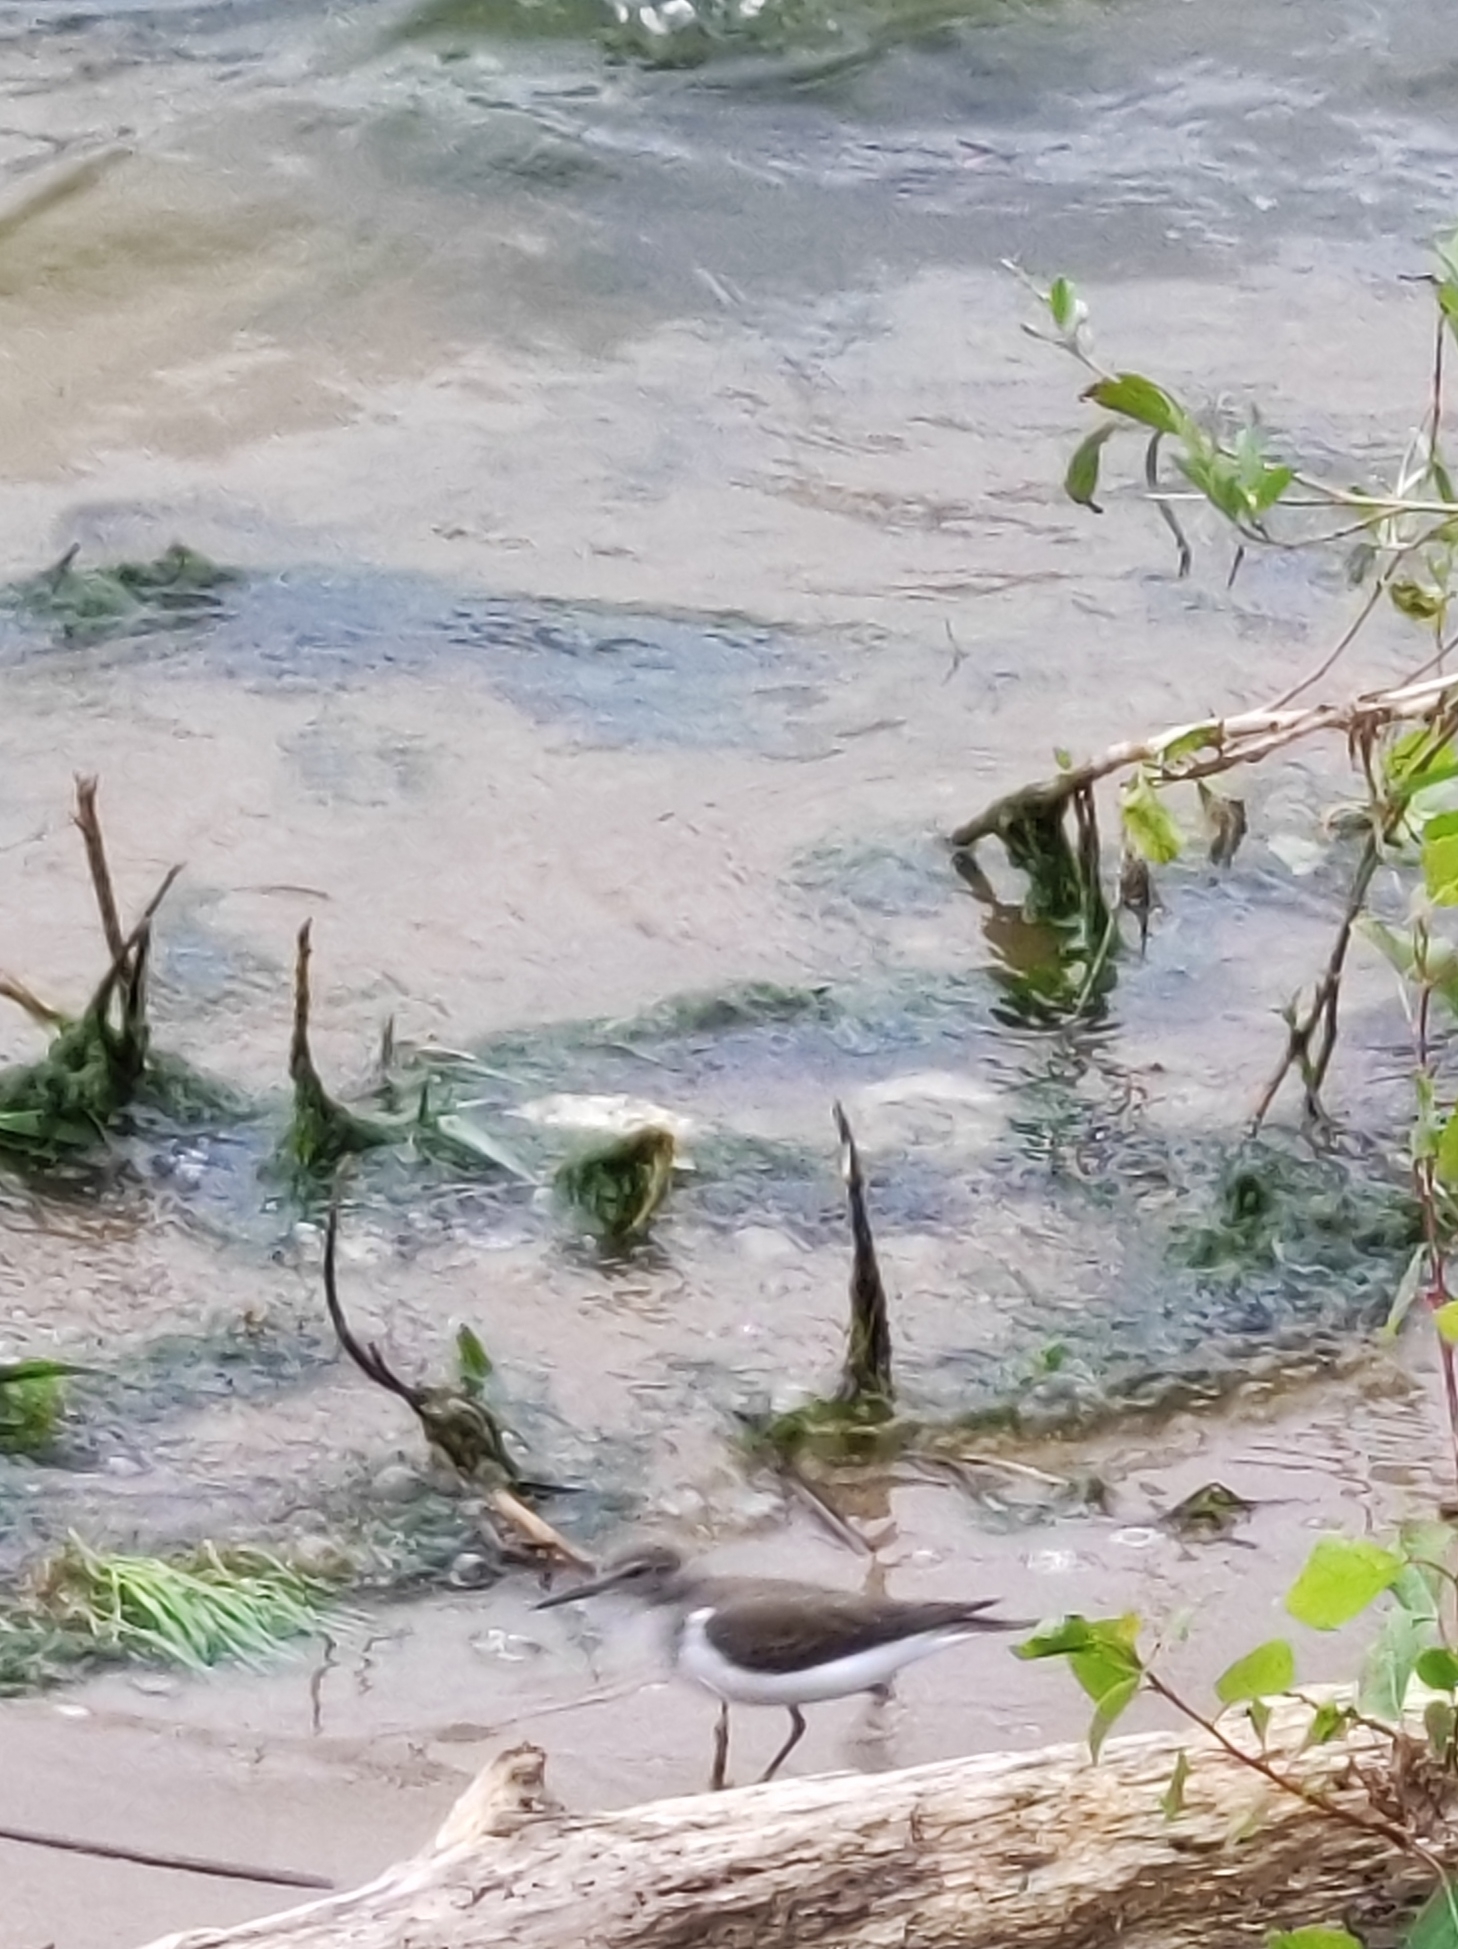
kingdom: Animalia
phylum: Chordata
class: Aves
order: Charadriiformes
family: Scolopacidae
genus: Actitis
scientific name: Actitis hypoleucos
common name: Common sandpiper
